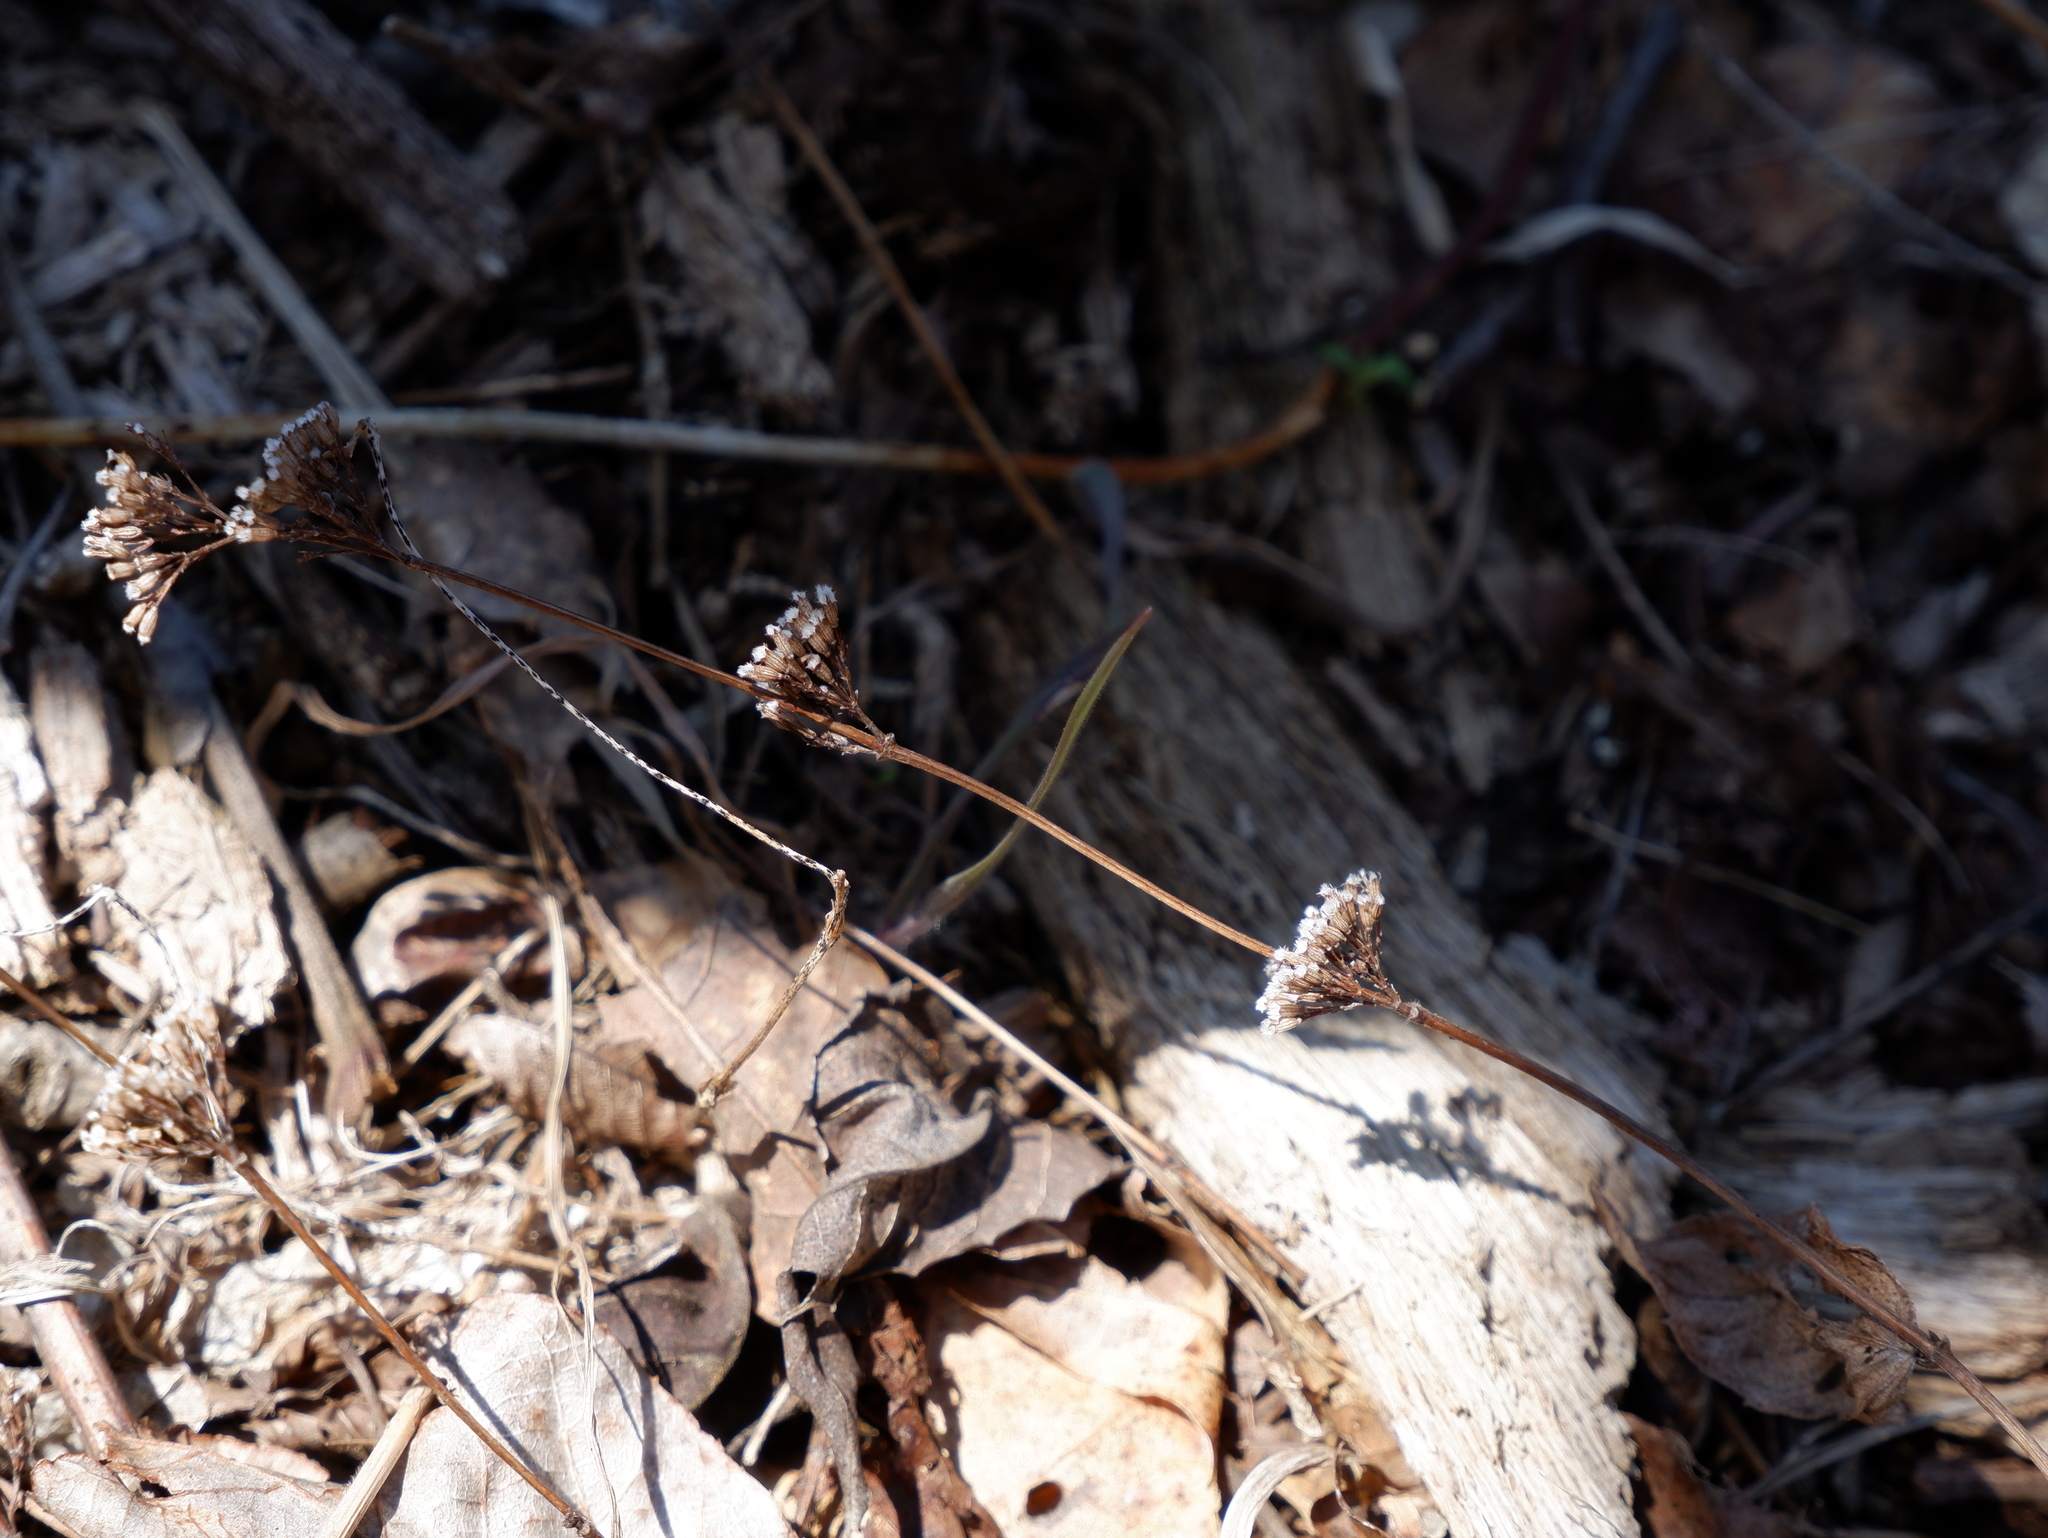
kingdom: Plantae
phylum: Tracheophyta
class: Magnoliopsida
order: Lamiales
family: Lamiaceae
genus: Cunila
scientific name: Cunila origanoides
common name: American dittany
